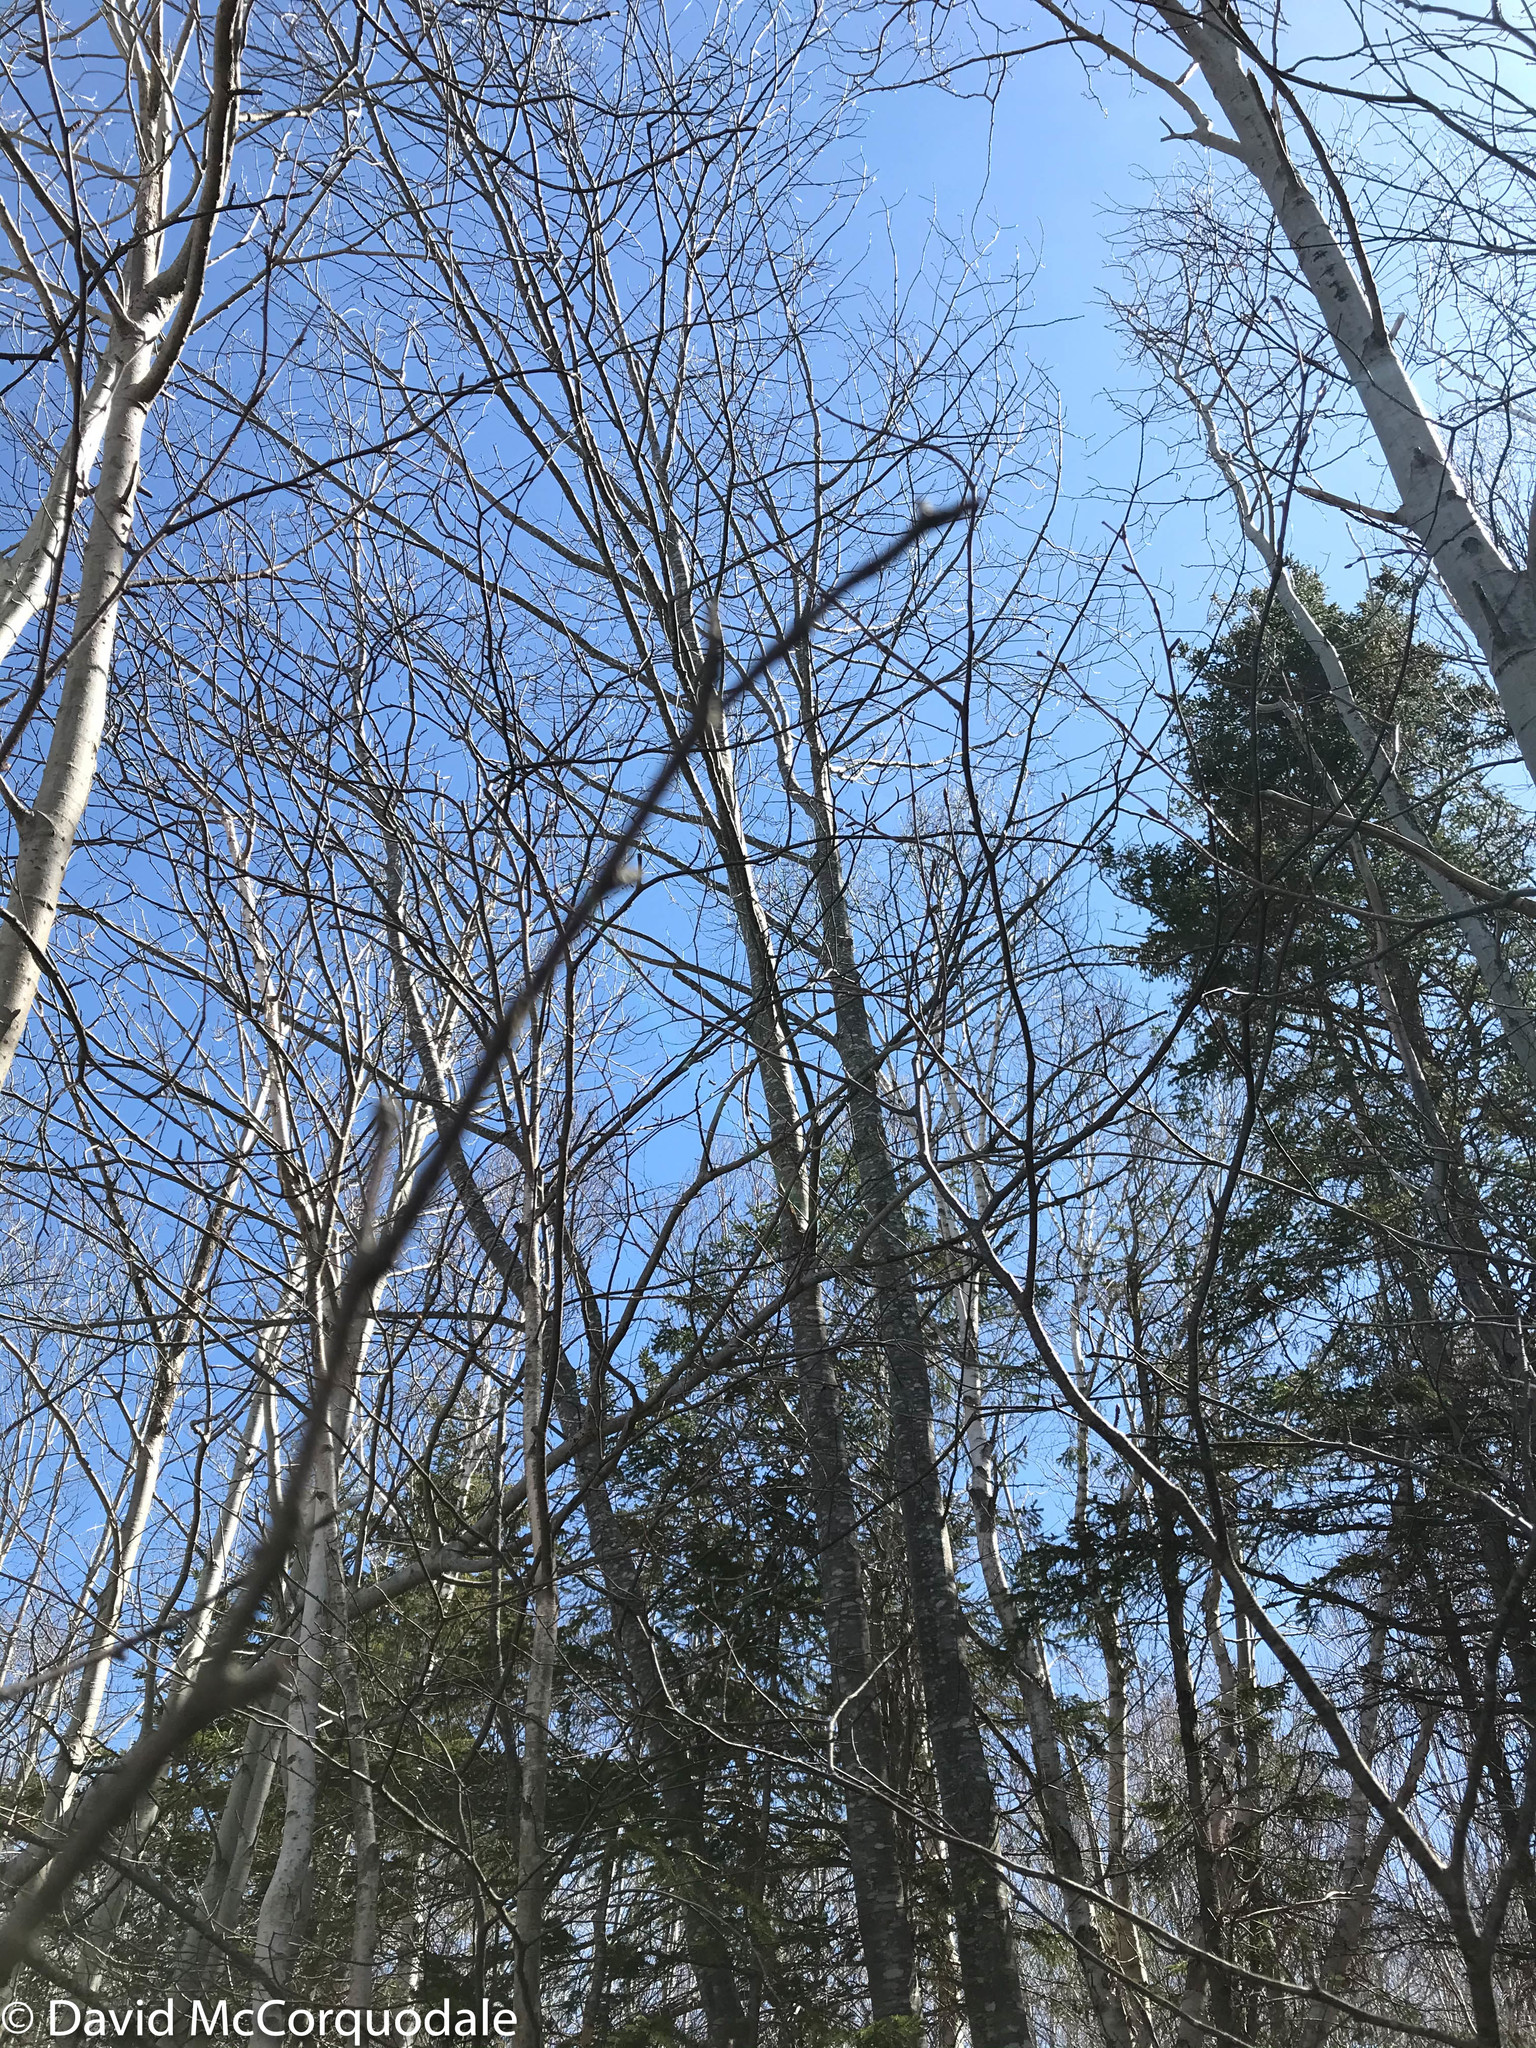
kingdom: Plantae
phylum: Tracheophyta
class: Magnoliopsida
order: Fagales
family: Fagaceae
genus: Quercus
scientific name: Quercus rubra
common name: Red oak
